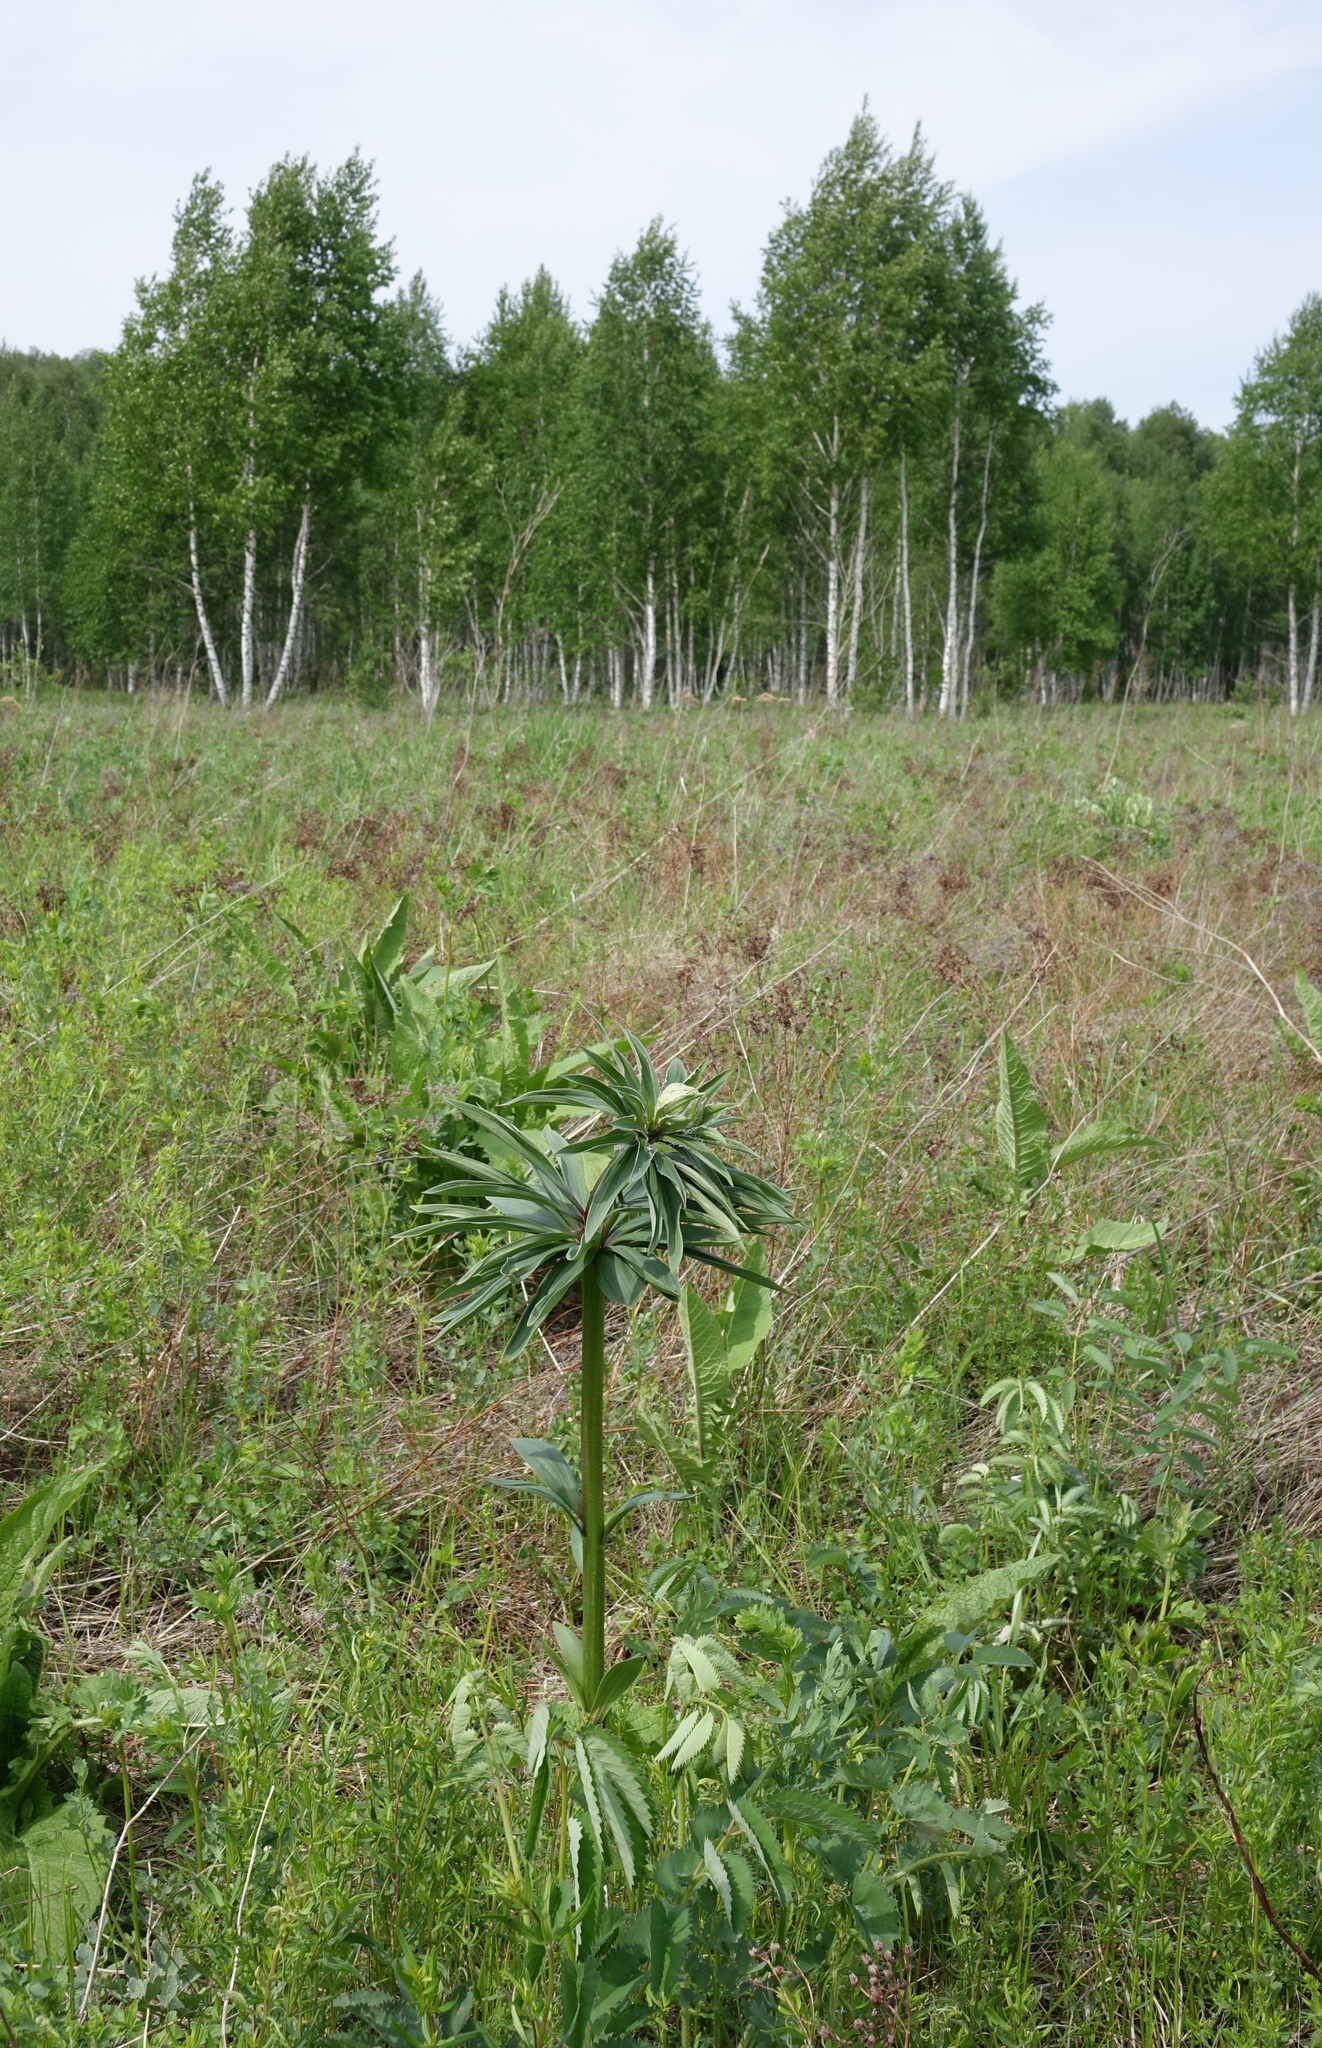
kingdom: Plantae
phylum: Tracheophyta
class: Liliopsida
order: Liliales
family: Liliaceae
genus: Lilium
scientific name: Lilium martagon
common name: Martagon lily
